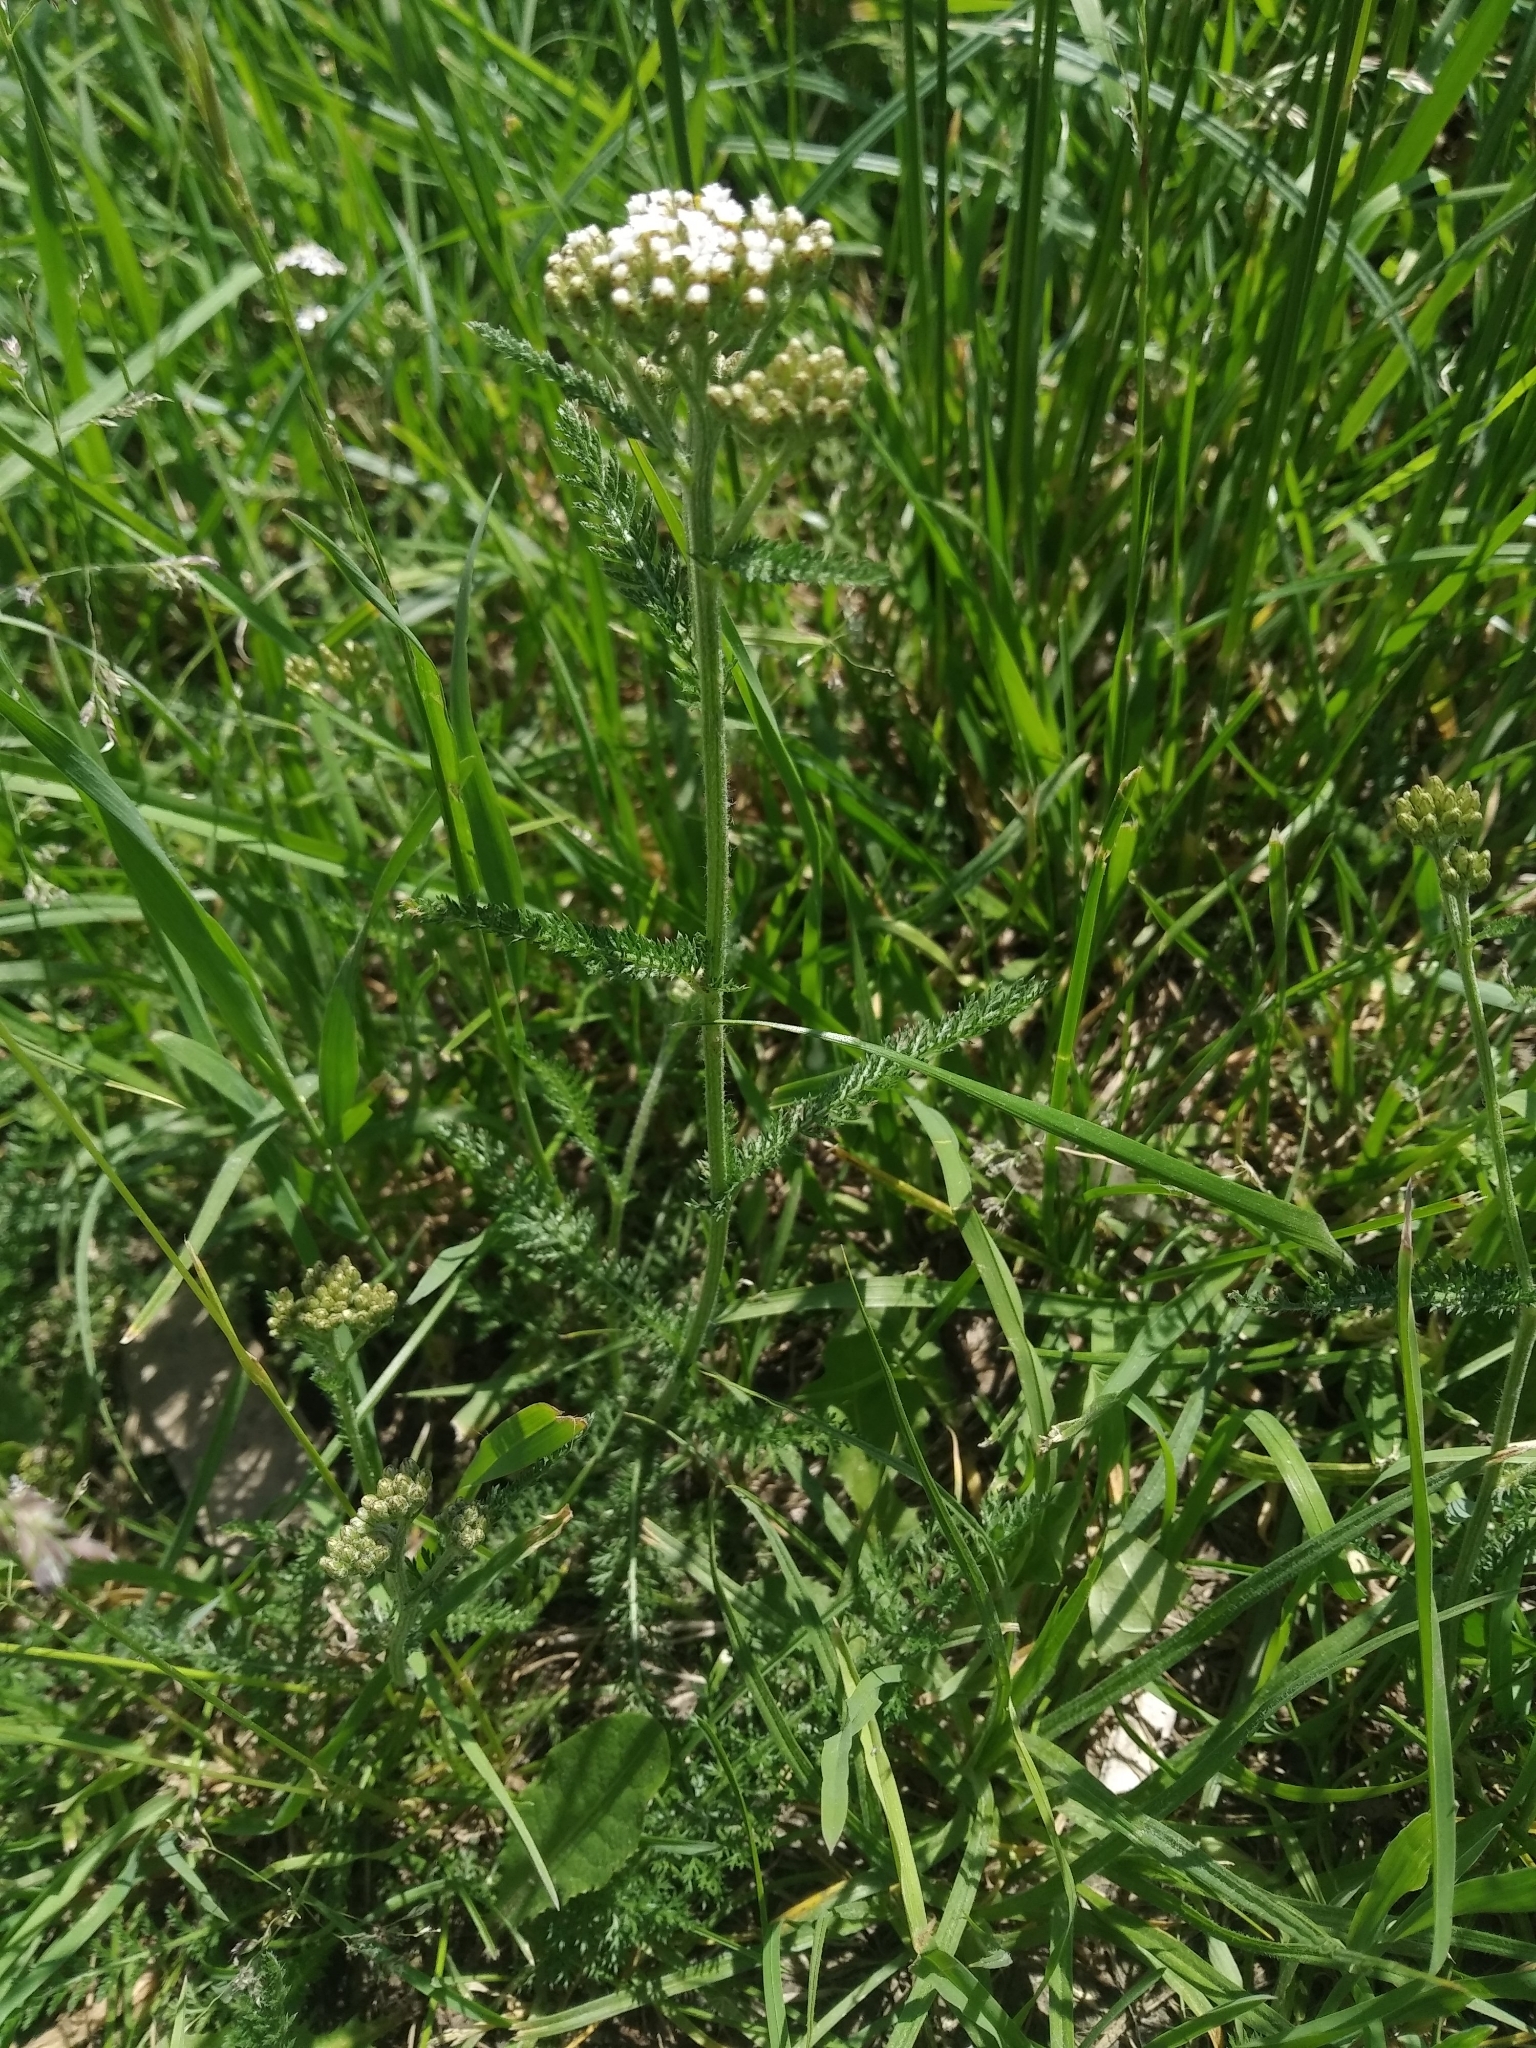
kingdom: Plantae
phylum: Tracheophyta
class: Magnoliopsida
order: Asterales
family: Asteraceae
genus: Achillea
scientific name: Achillea millefolium
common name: Yarrow
